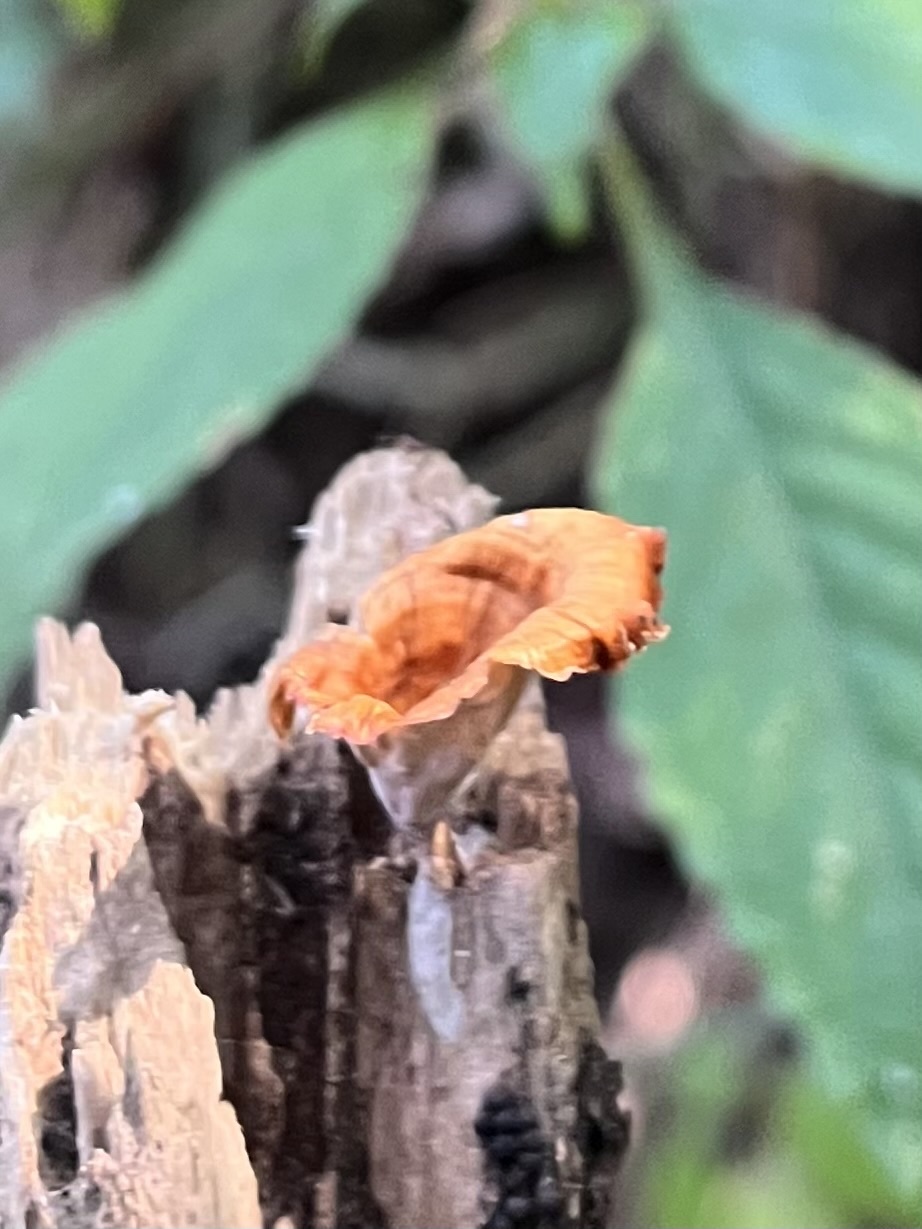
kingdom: Fungi
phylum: Basidiomycota
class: Agaricomycetes
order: Polyporales
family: Polyporaceae
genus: Microporus
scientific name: Microporus xanthopus
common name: Yellow-stemmed micropore
